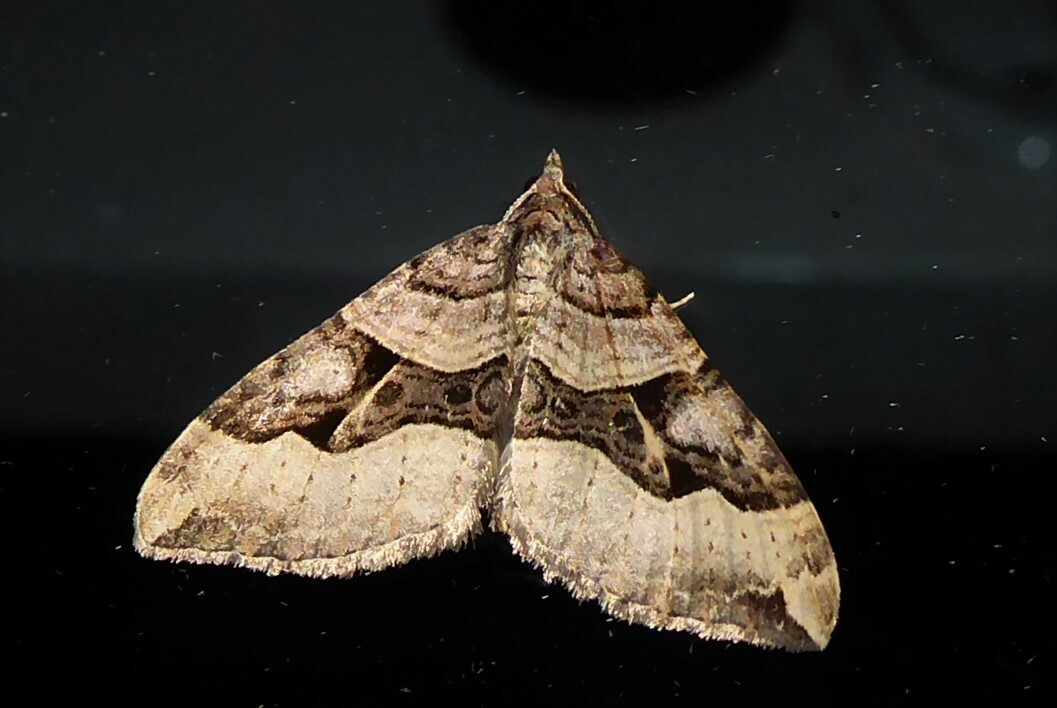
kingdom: Animalia
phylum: Arthropoda
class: Insecta
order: Lepidoptera
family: Geometridae
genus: Xanthorhoe
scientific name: Xanthorhoe semifissata
